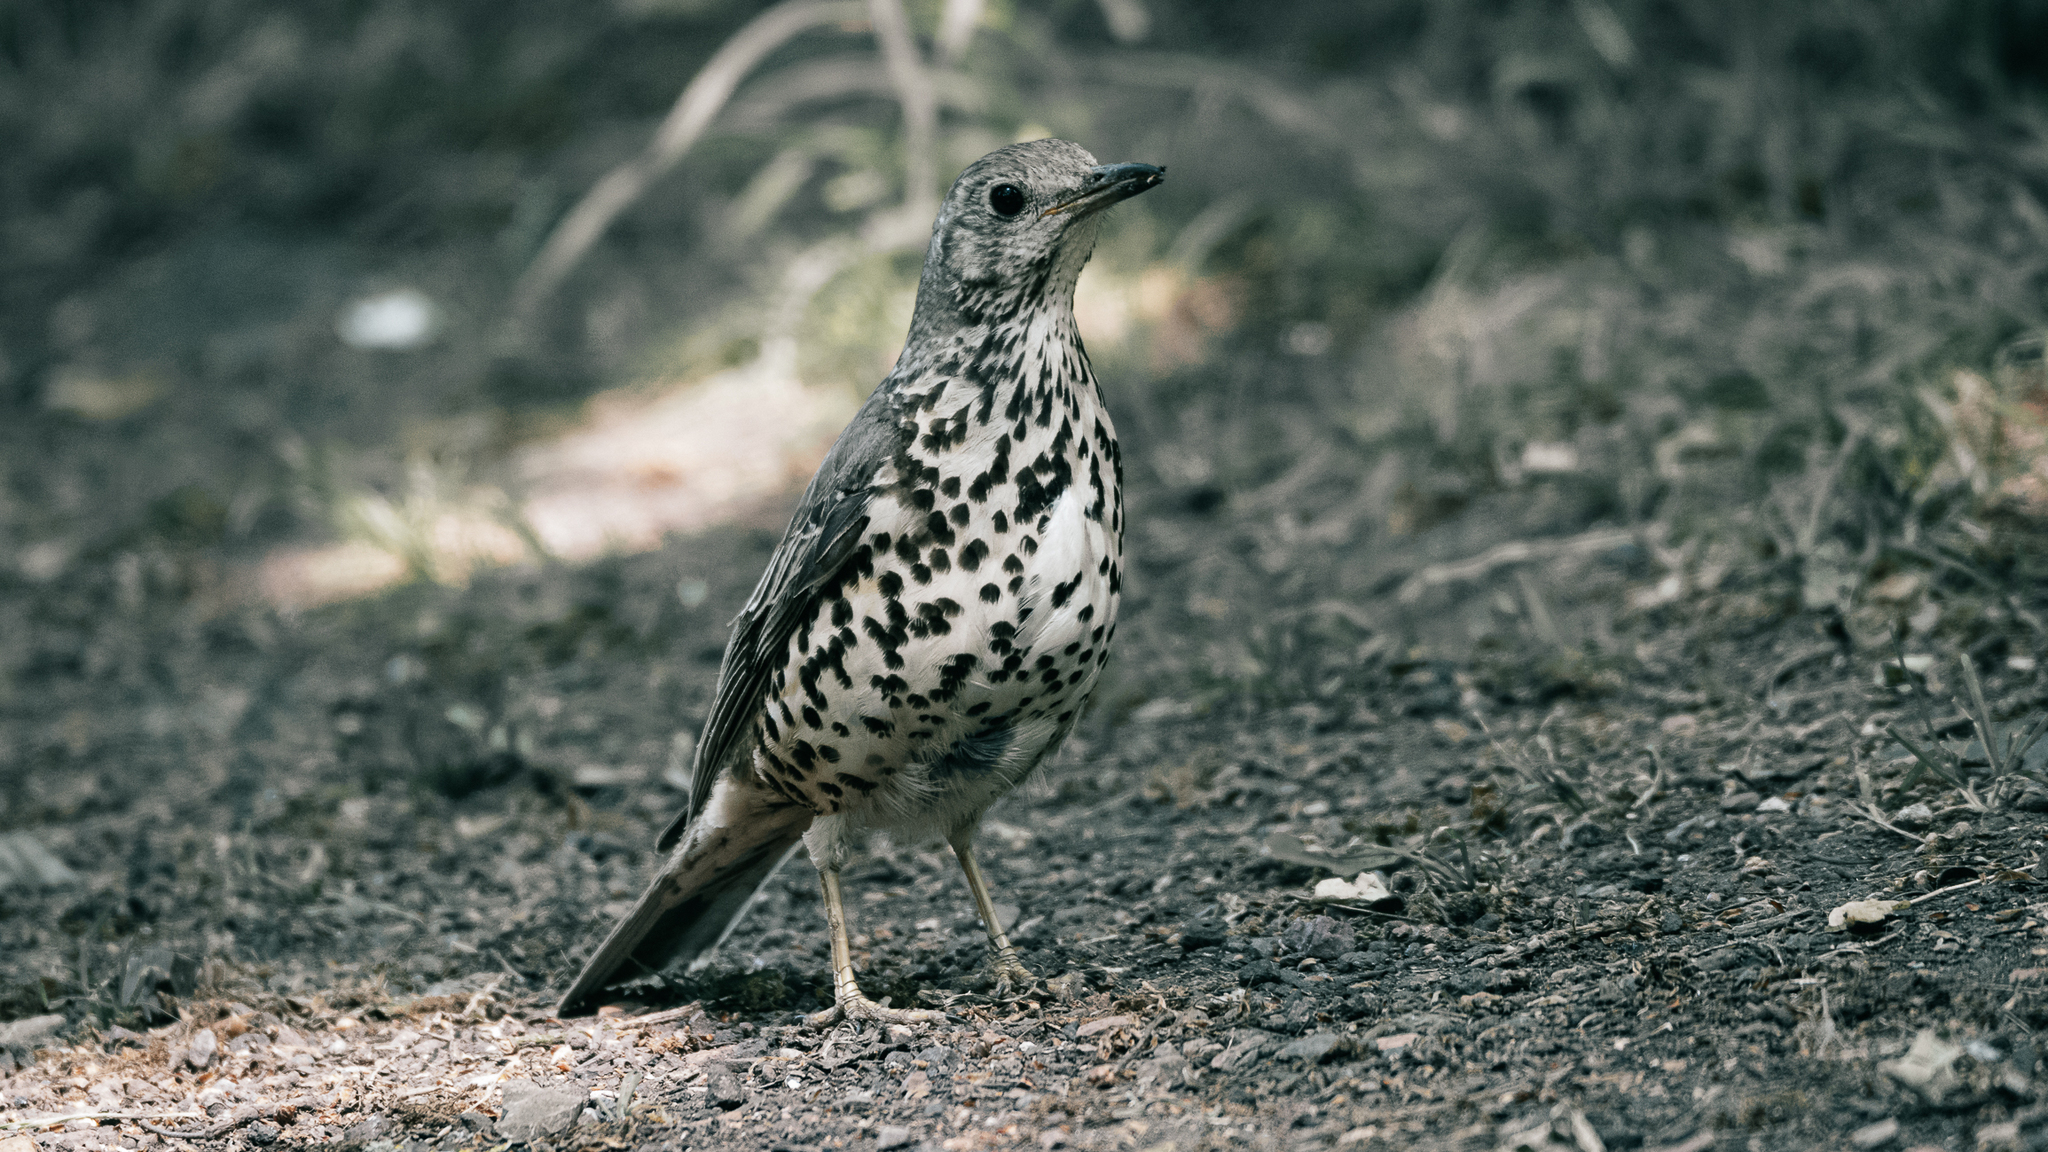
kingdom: Animalia
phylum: Chordata
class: Aves
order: Passeriformes
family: Turdidae
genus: Turdus
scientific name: Turdus viscivorus
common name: Mistle thrush
